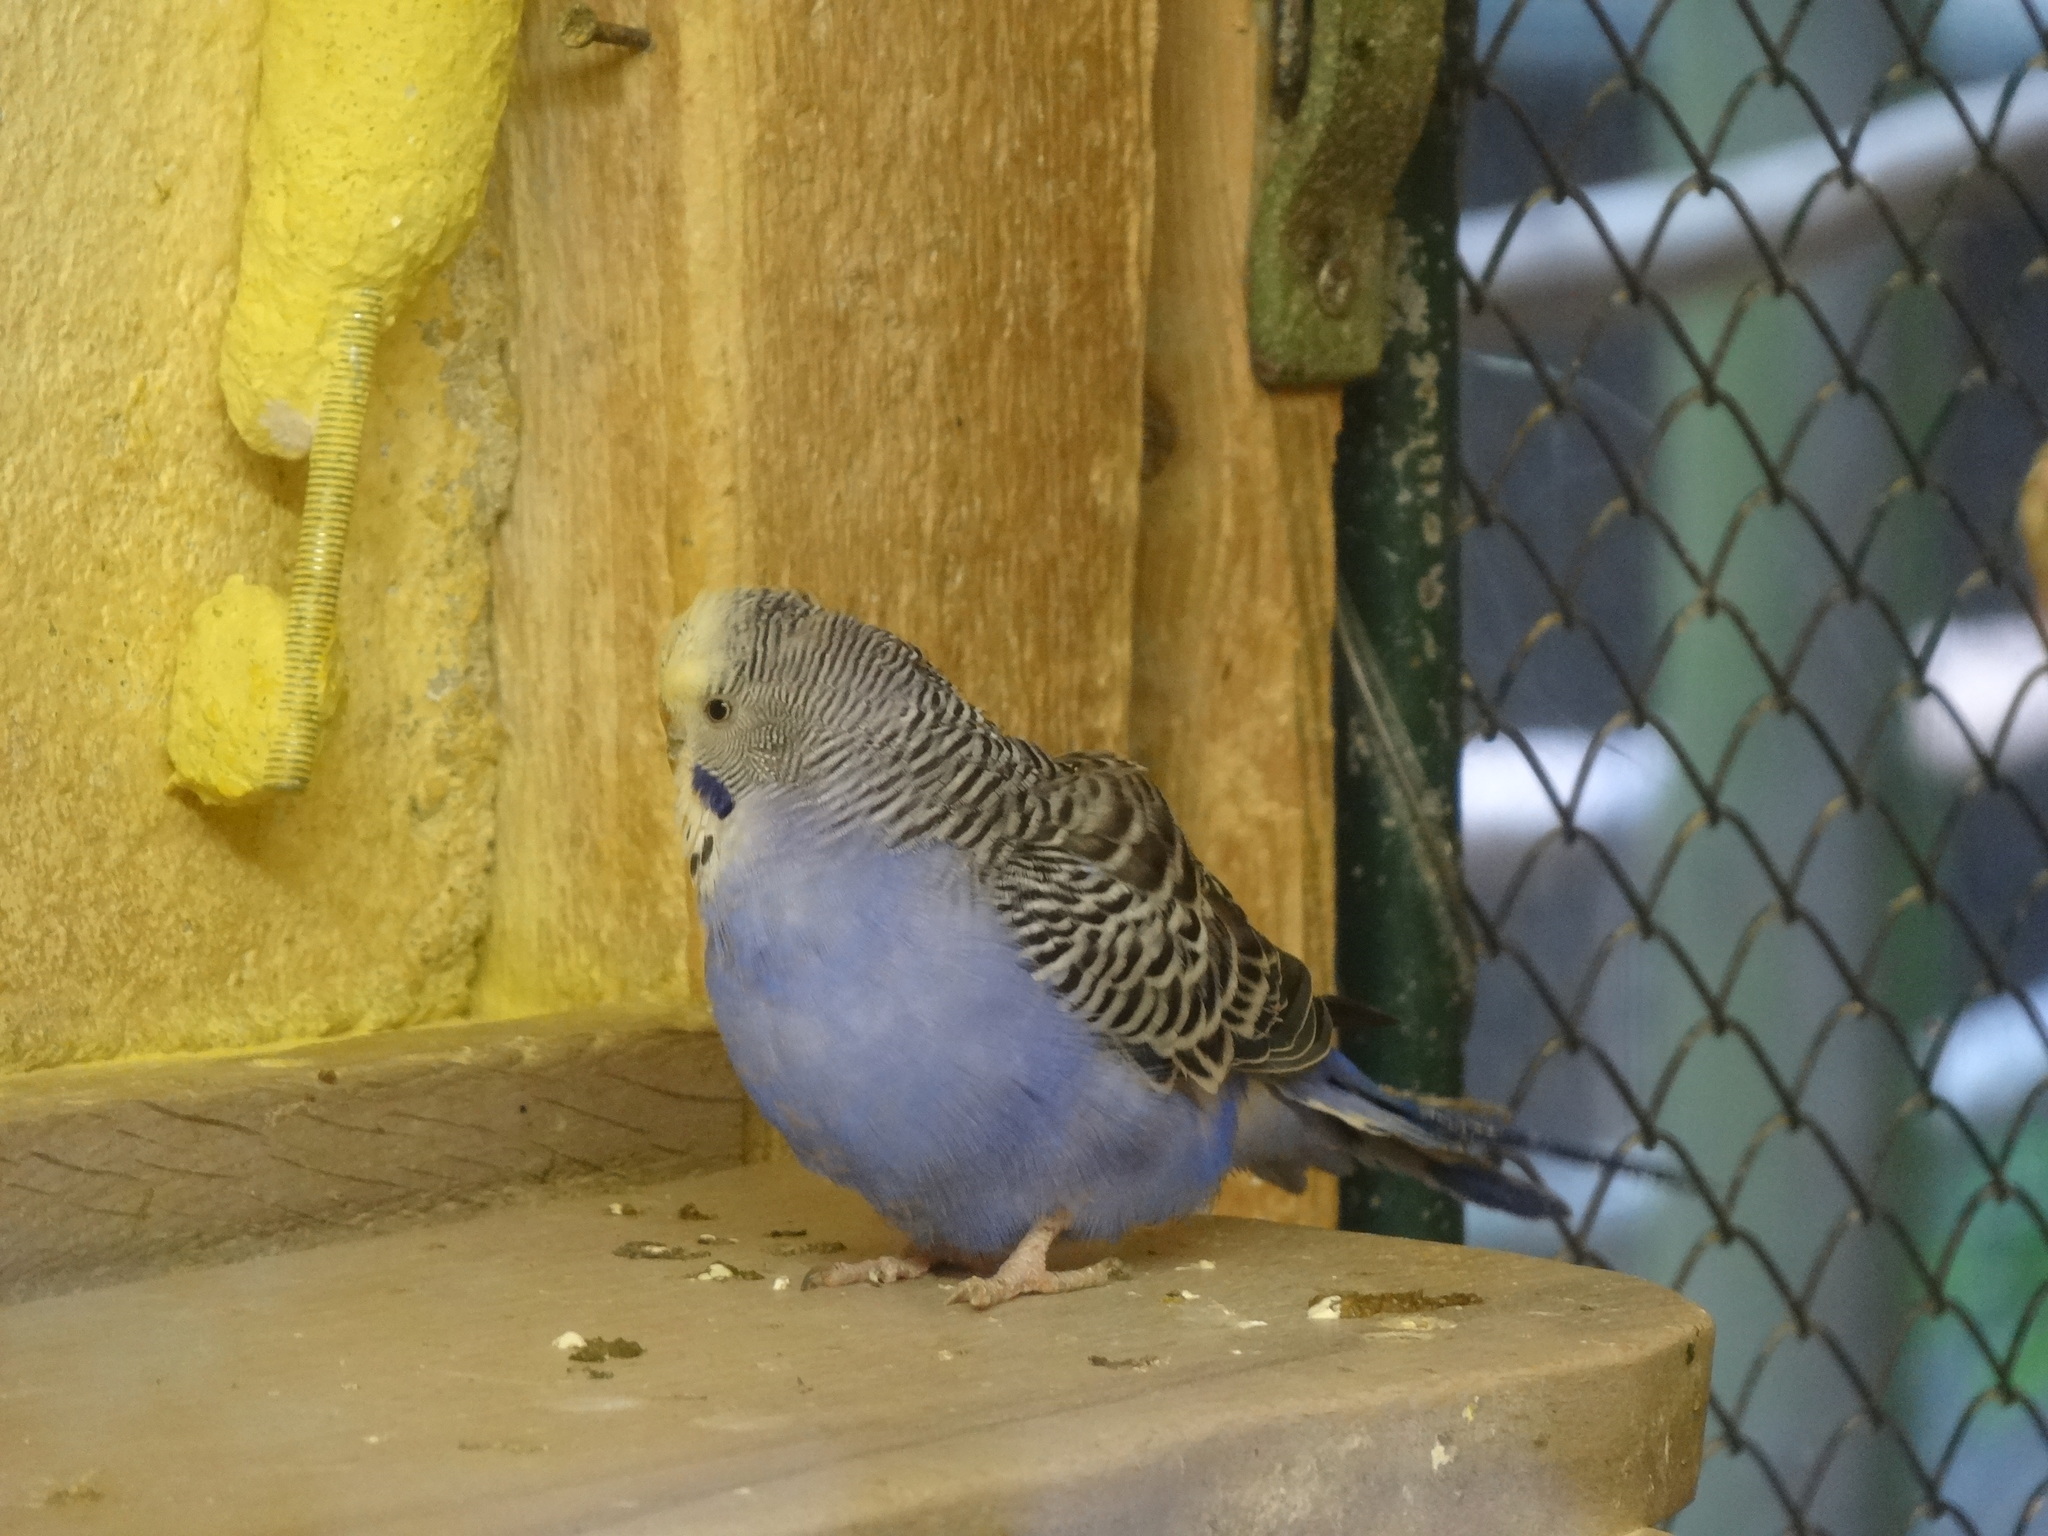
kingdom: Animalia
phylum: Chordata
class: Aves
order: Psittaciformes
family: Psittacidae
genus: Melopsittacus
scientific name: Melopsittacus undulatus
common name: Budgerigar
